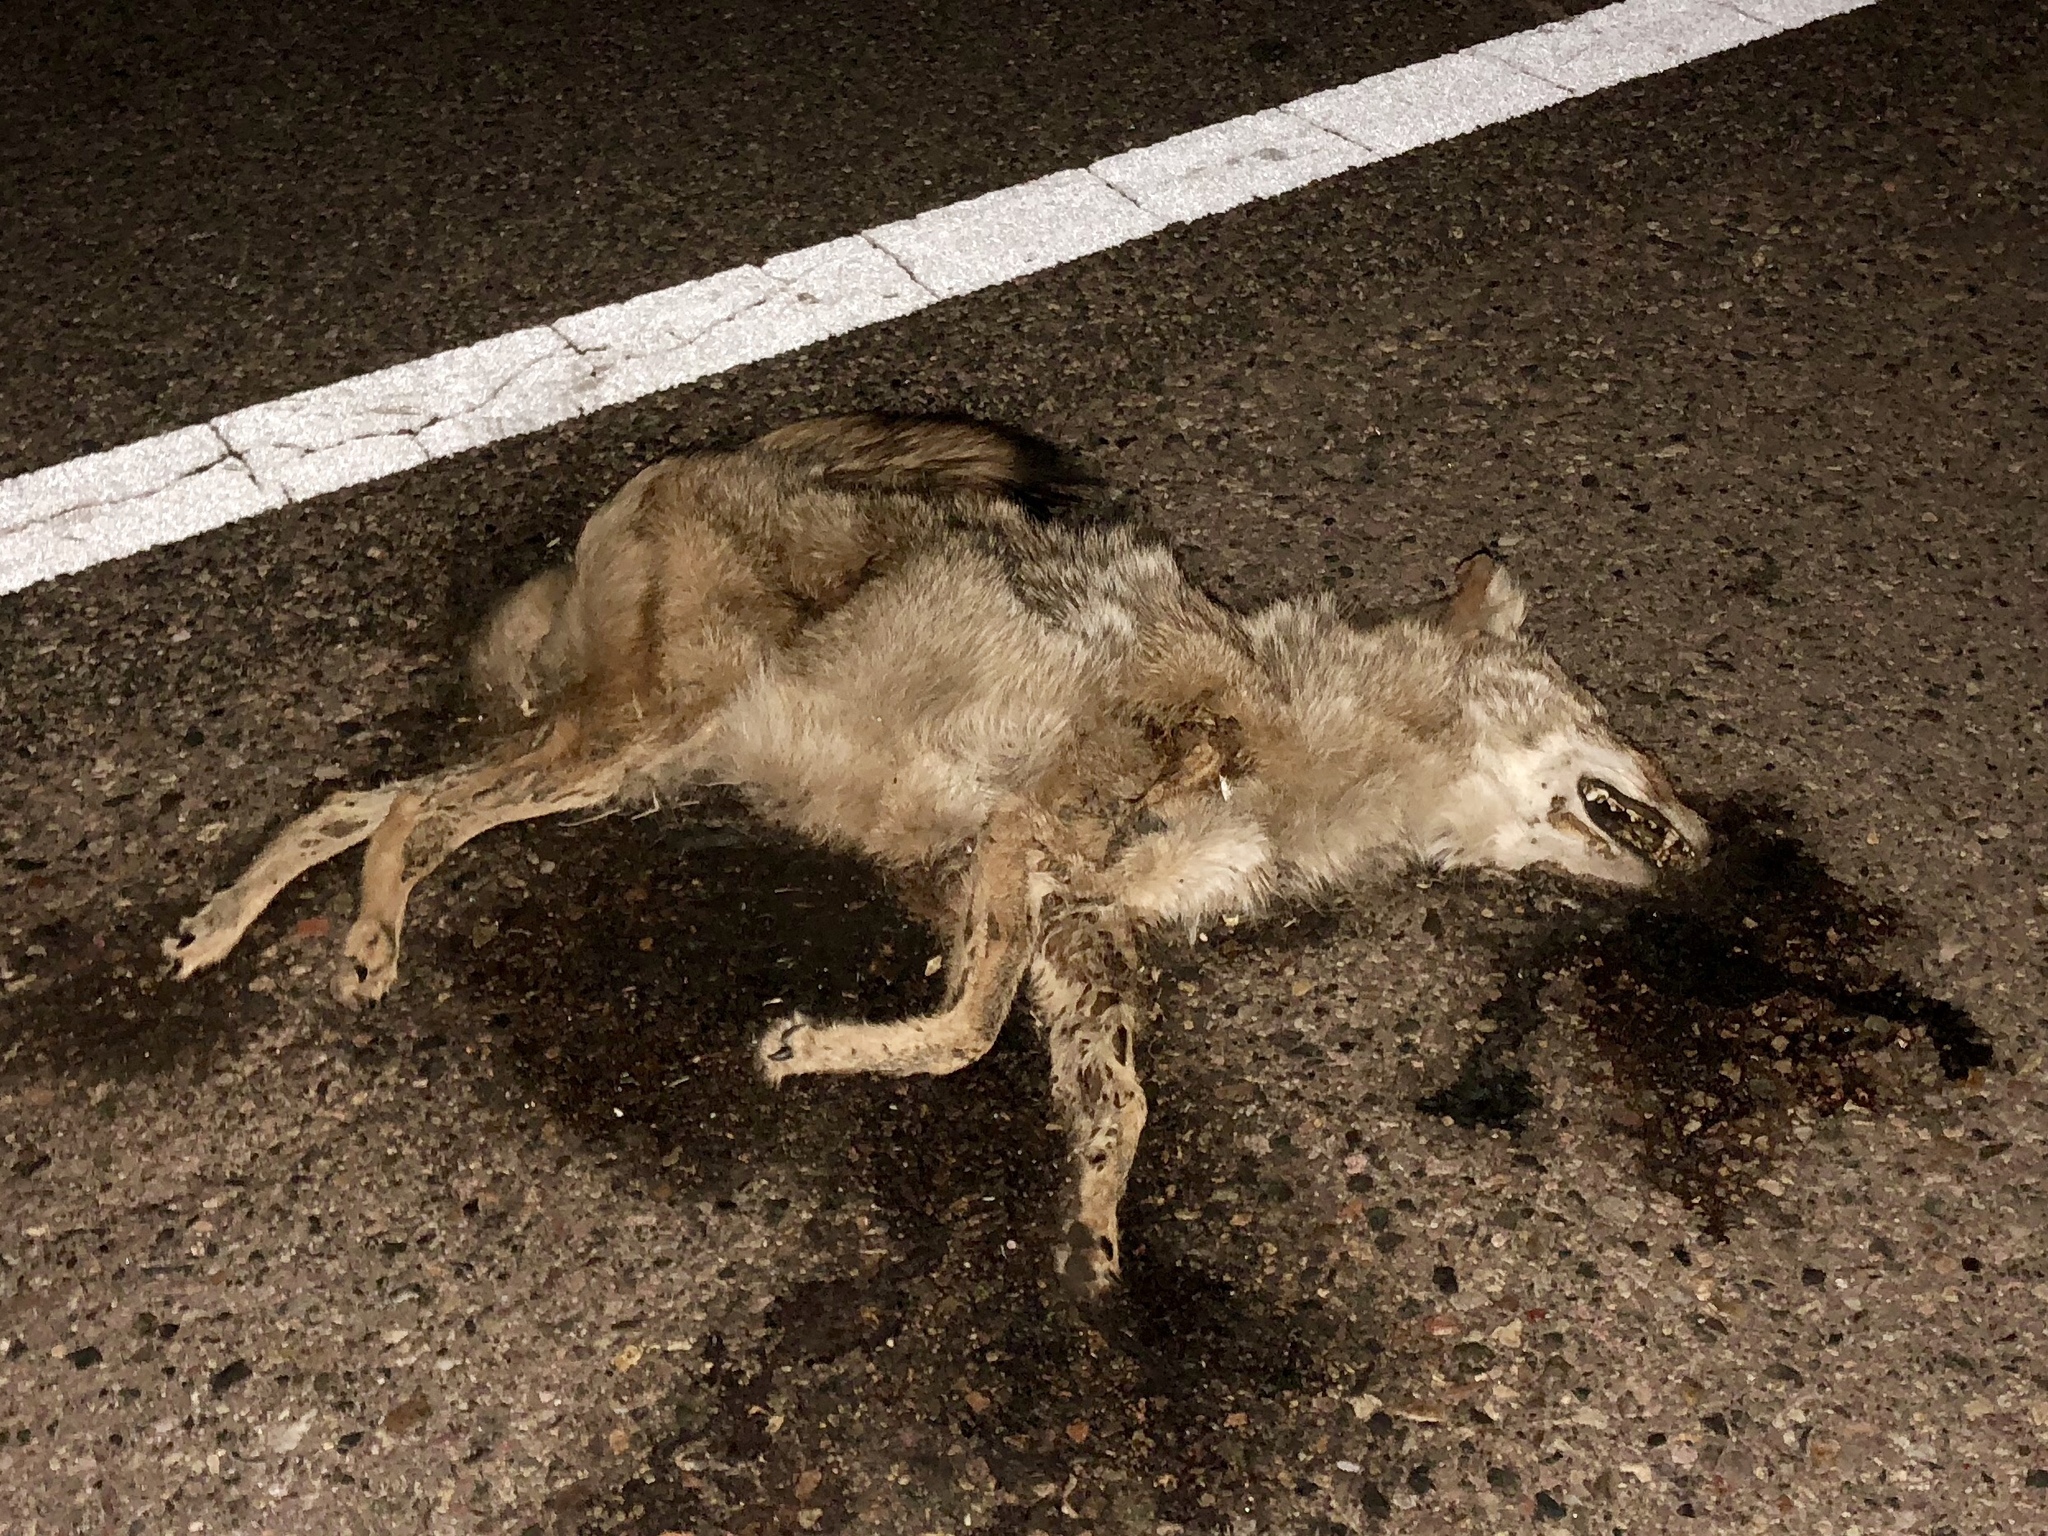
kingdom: Animalia
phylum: Chordata
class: Mammalia
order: Carnivora
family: Canidae
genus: Canis
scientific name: Canis latrans
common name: Coyote
